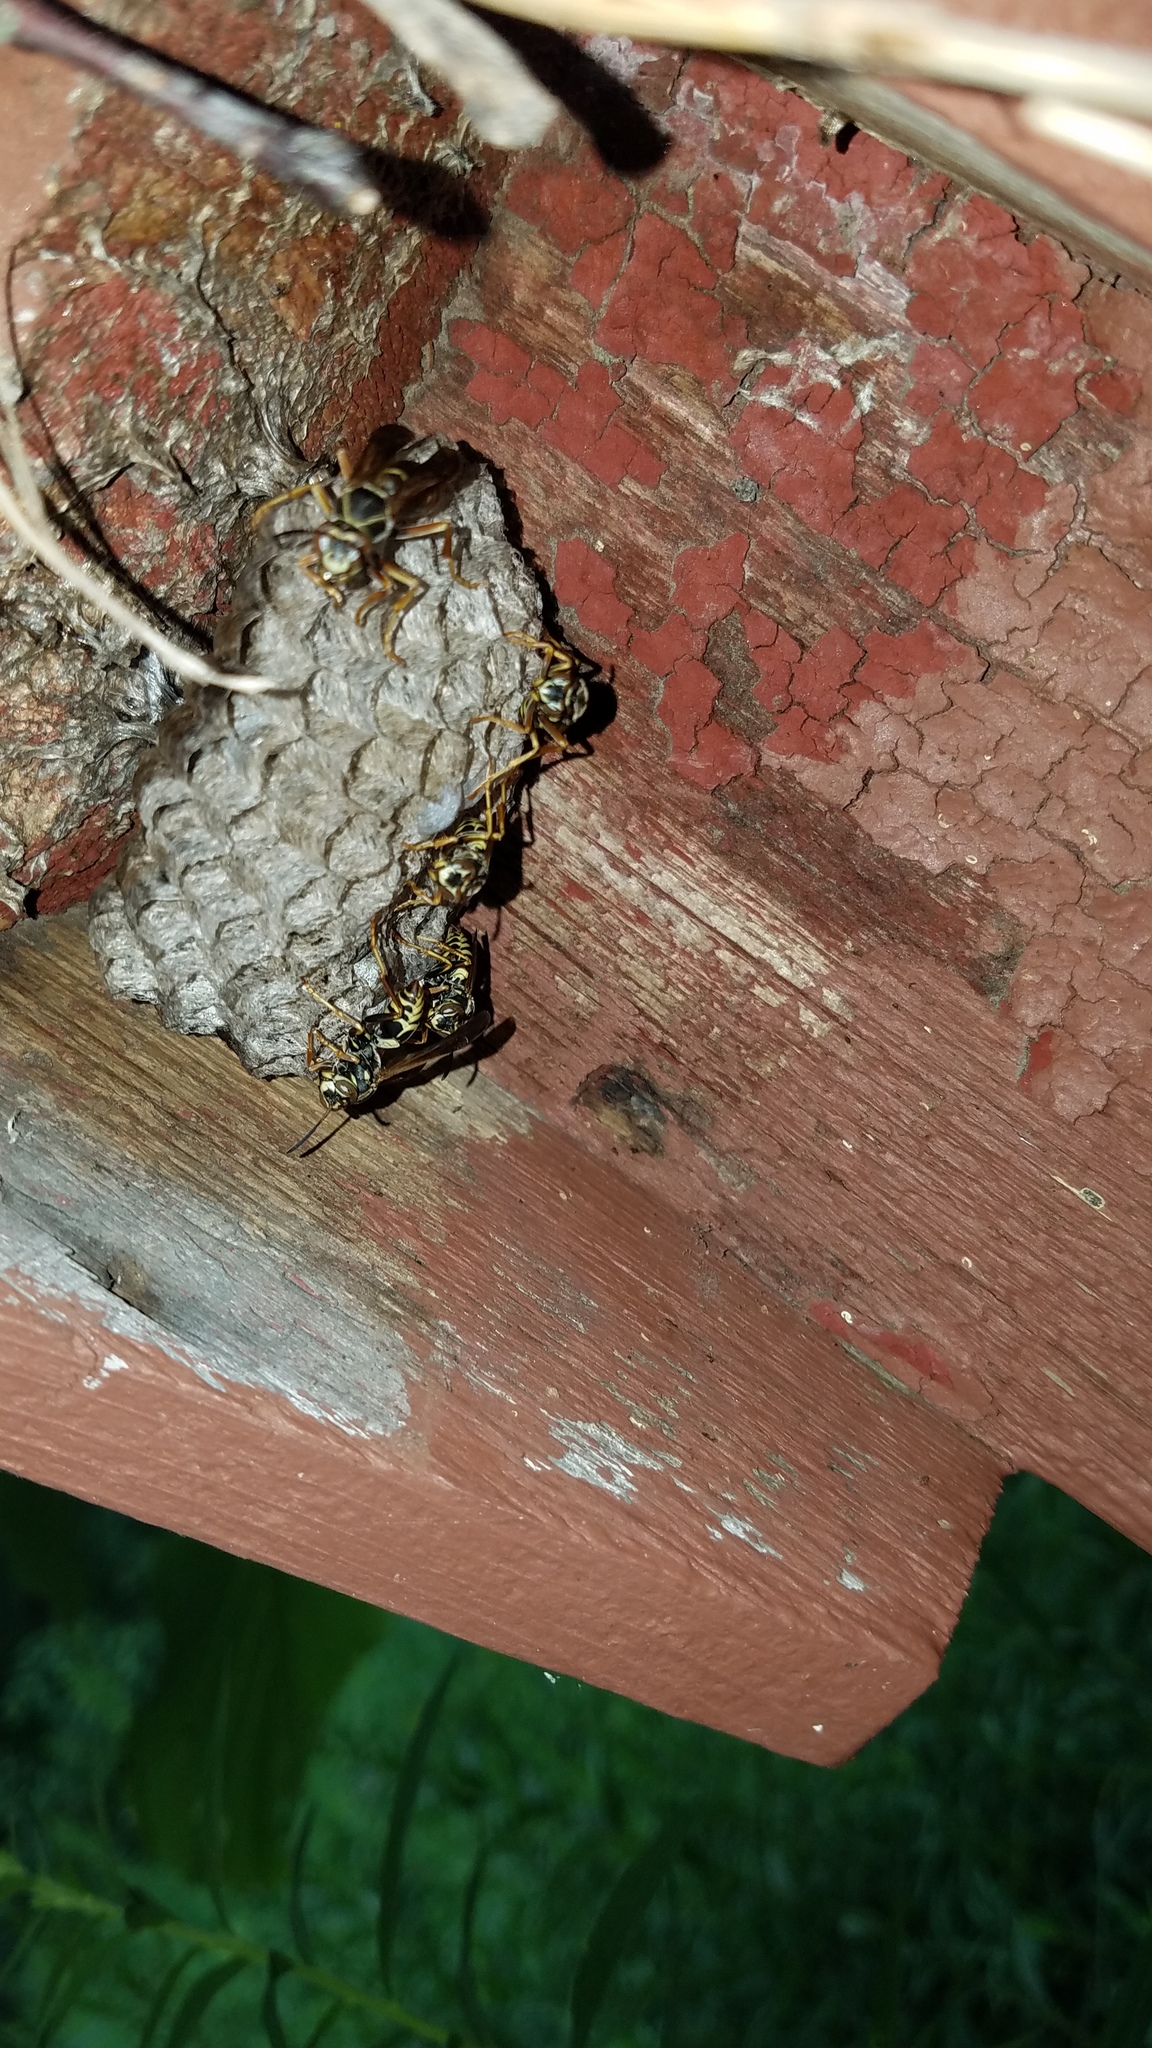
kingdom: Animalia
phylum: Arthropoda
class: Insecta
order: Hymenoptera
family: Eumenidae
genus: Polistes
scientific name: Polistes fuscatus
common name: Dark paper wasp
